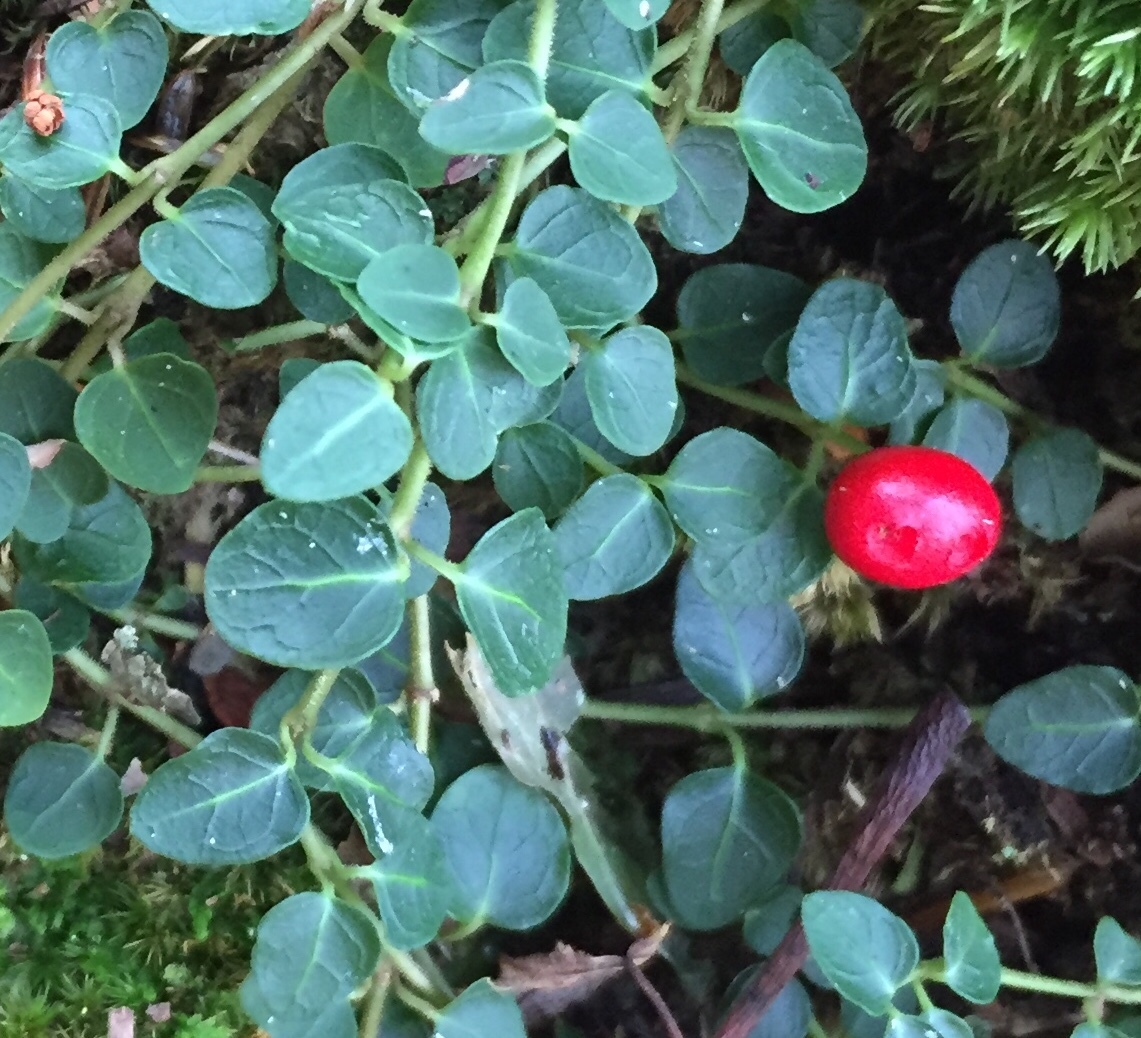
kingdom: Plantae
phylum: Tracheophyta
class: Magnoliopsida
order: Gentianales
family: Rubiaceae
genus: Mitchella
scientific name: Mitchella repens
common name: Partridge-berry
